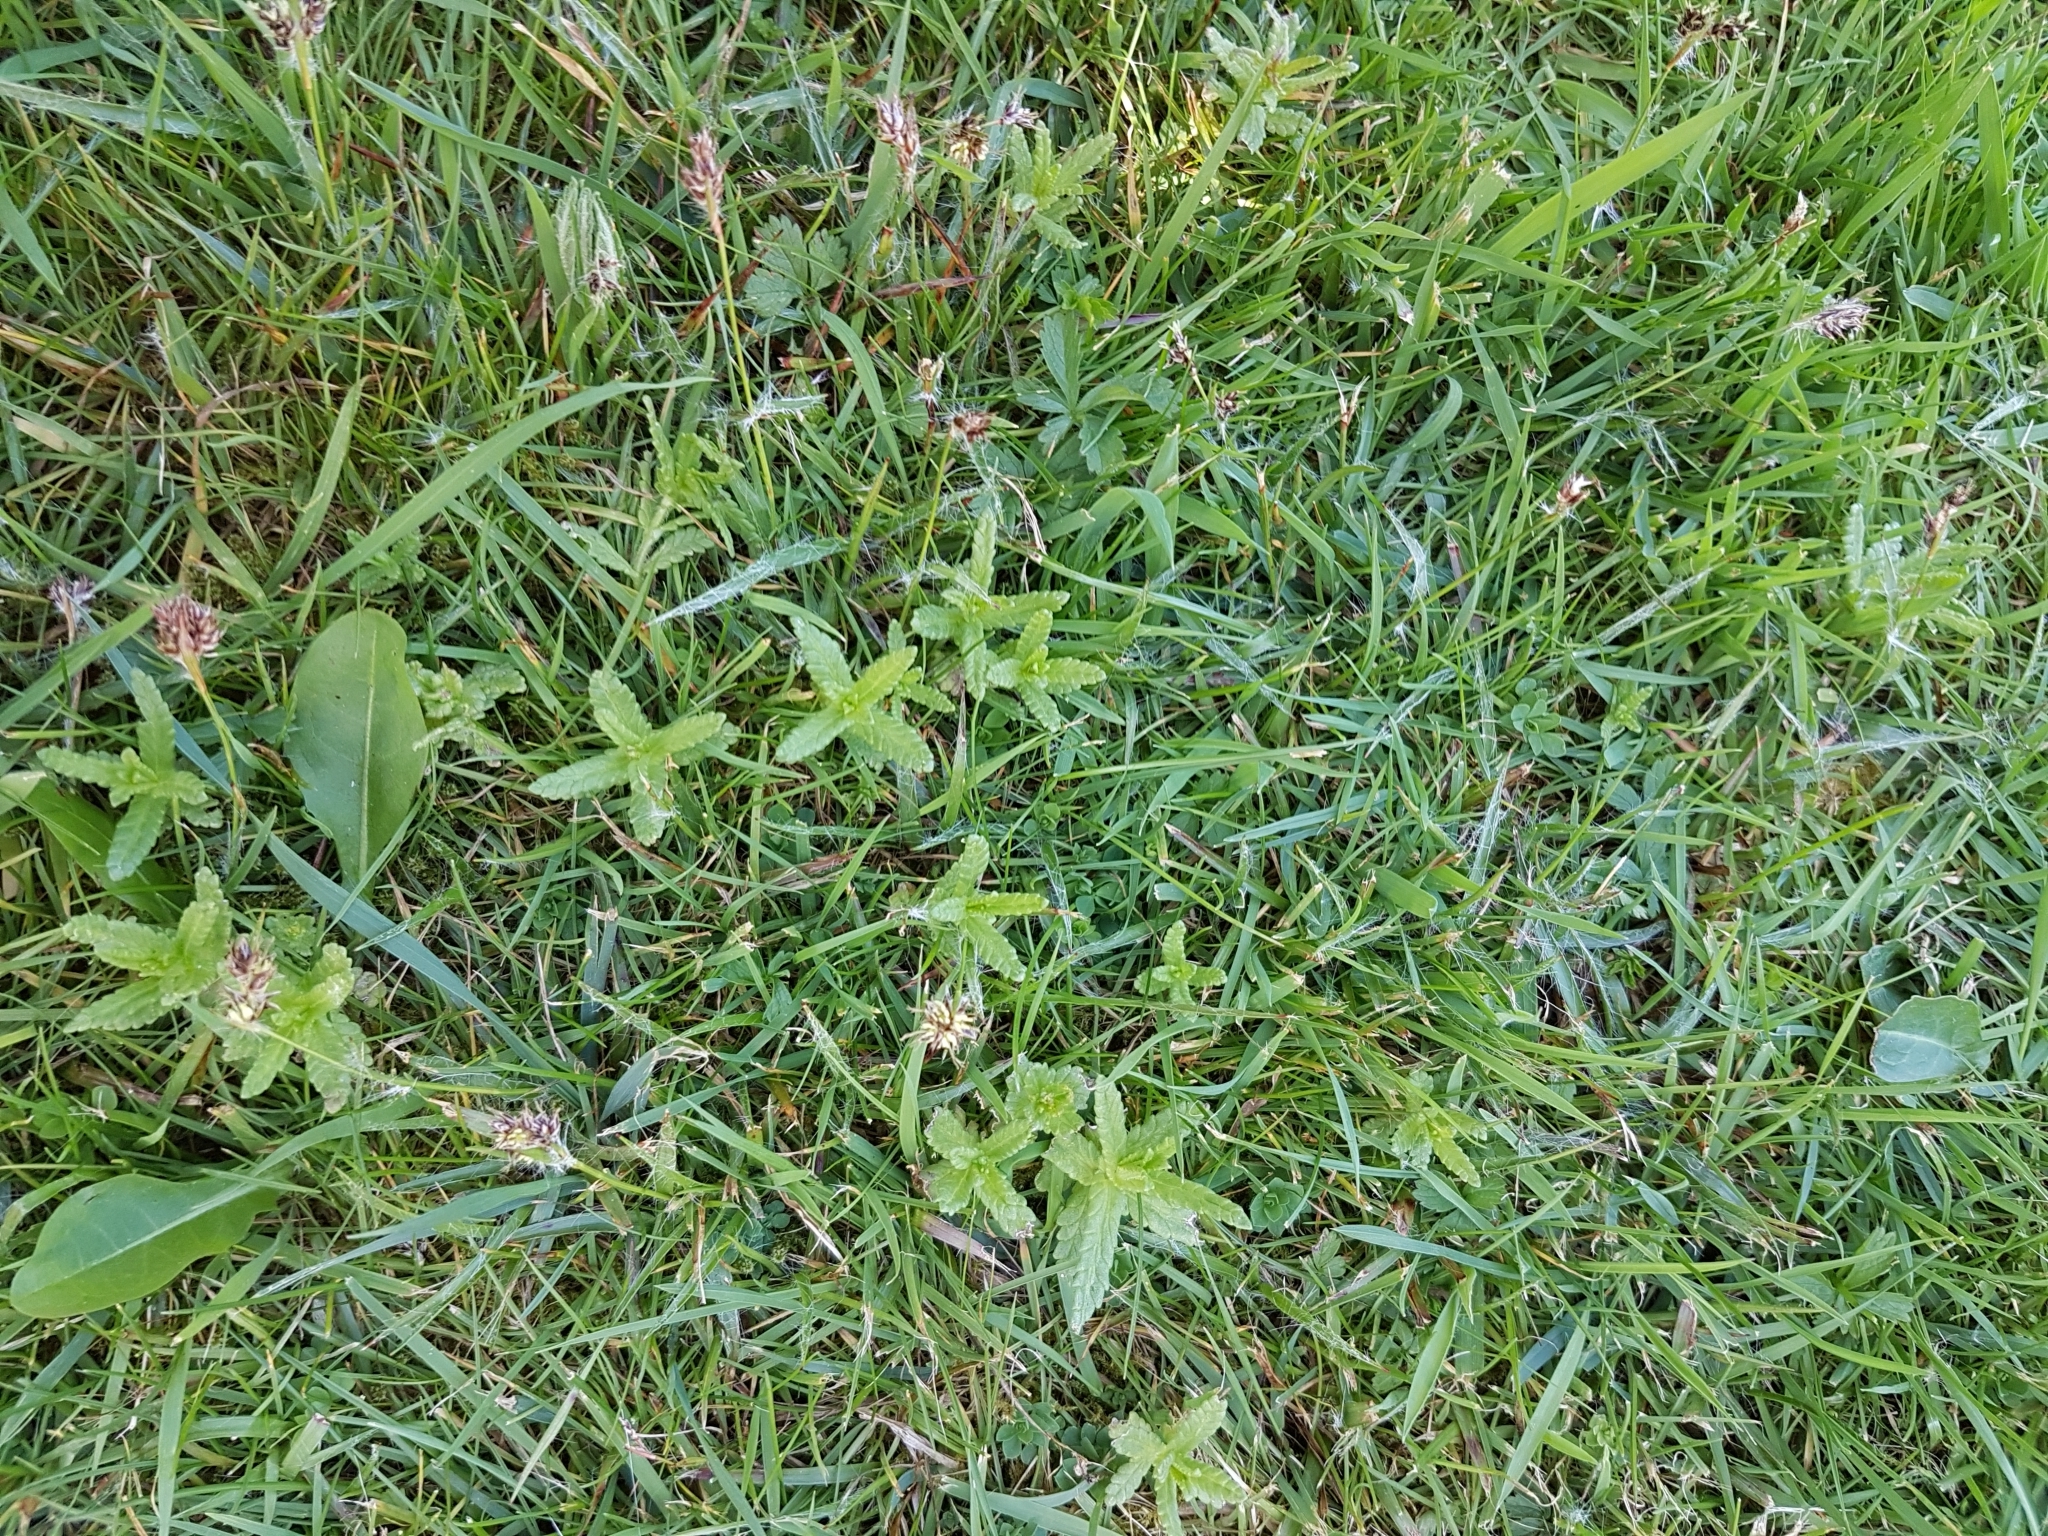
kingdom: Plantae
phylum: Tracheophyta
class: Magnoliopsida
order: Lamiales
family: Orobanchaceae
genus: Rhinanthus
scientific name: Rhinanthus minor
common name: Yellow-rattle
